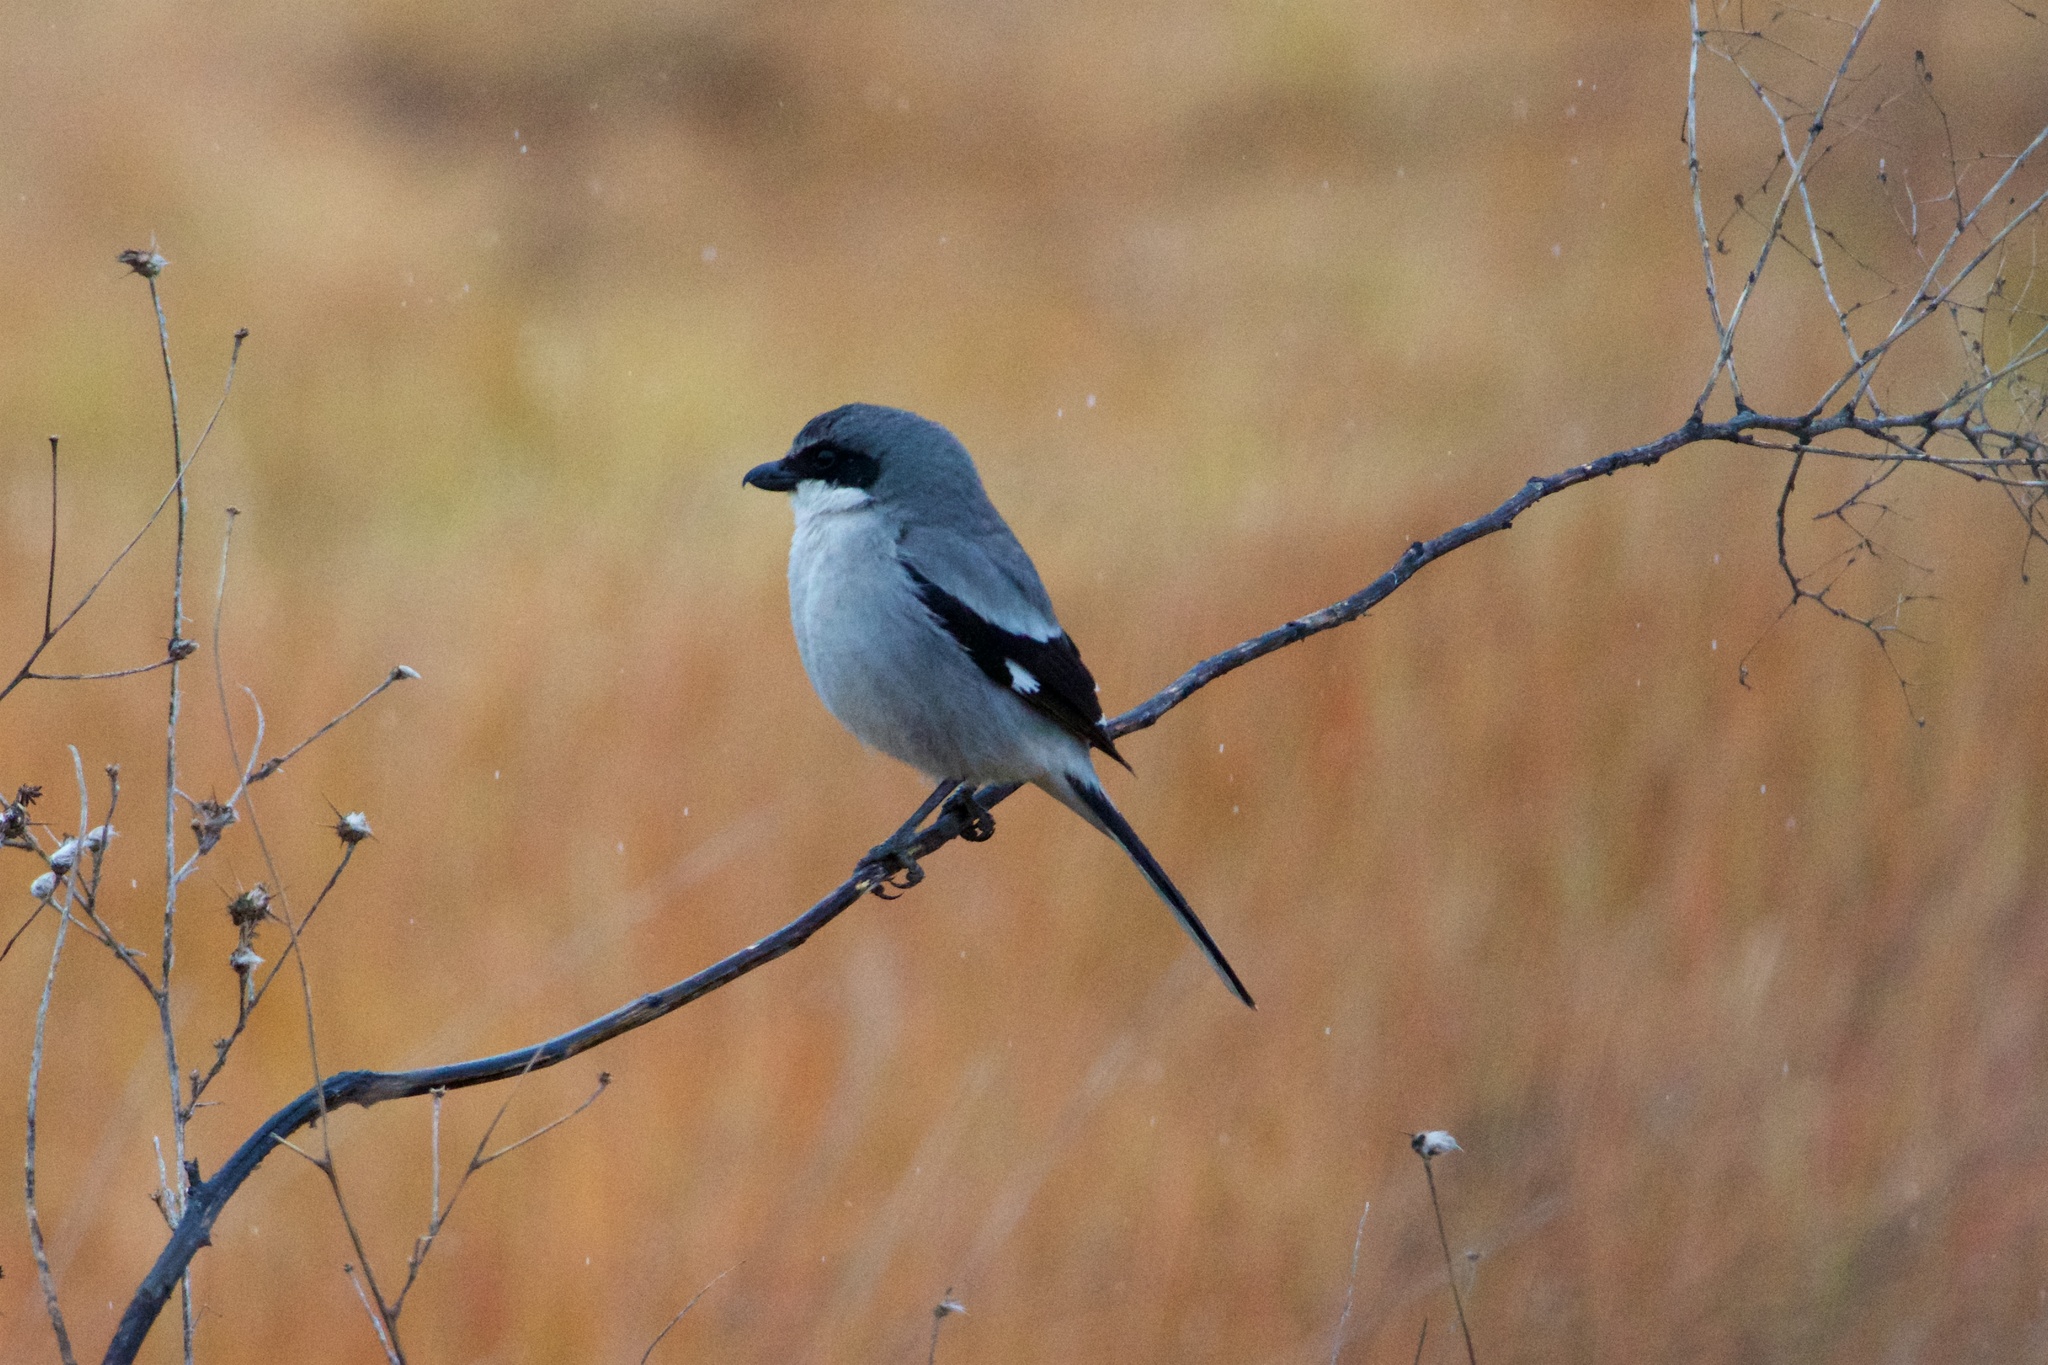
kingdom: Animalia
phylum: Chordata
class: Aves
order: Passeriformes
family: Laniidae
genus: Lanius
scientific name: Lanius ludovicianus
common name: Loggerhead shrike
